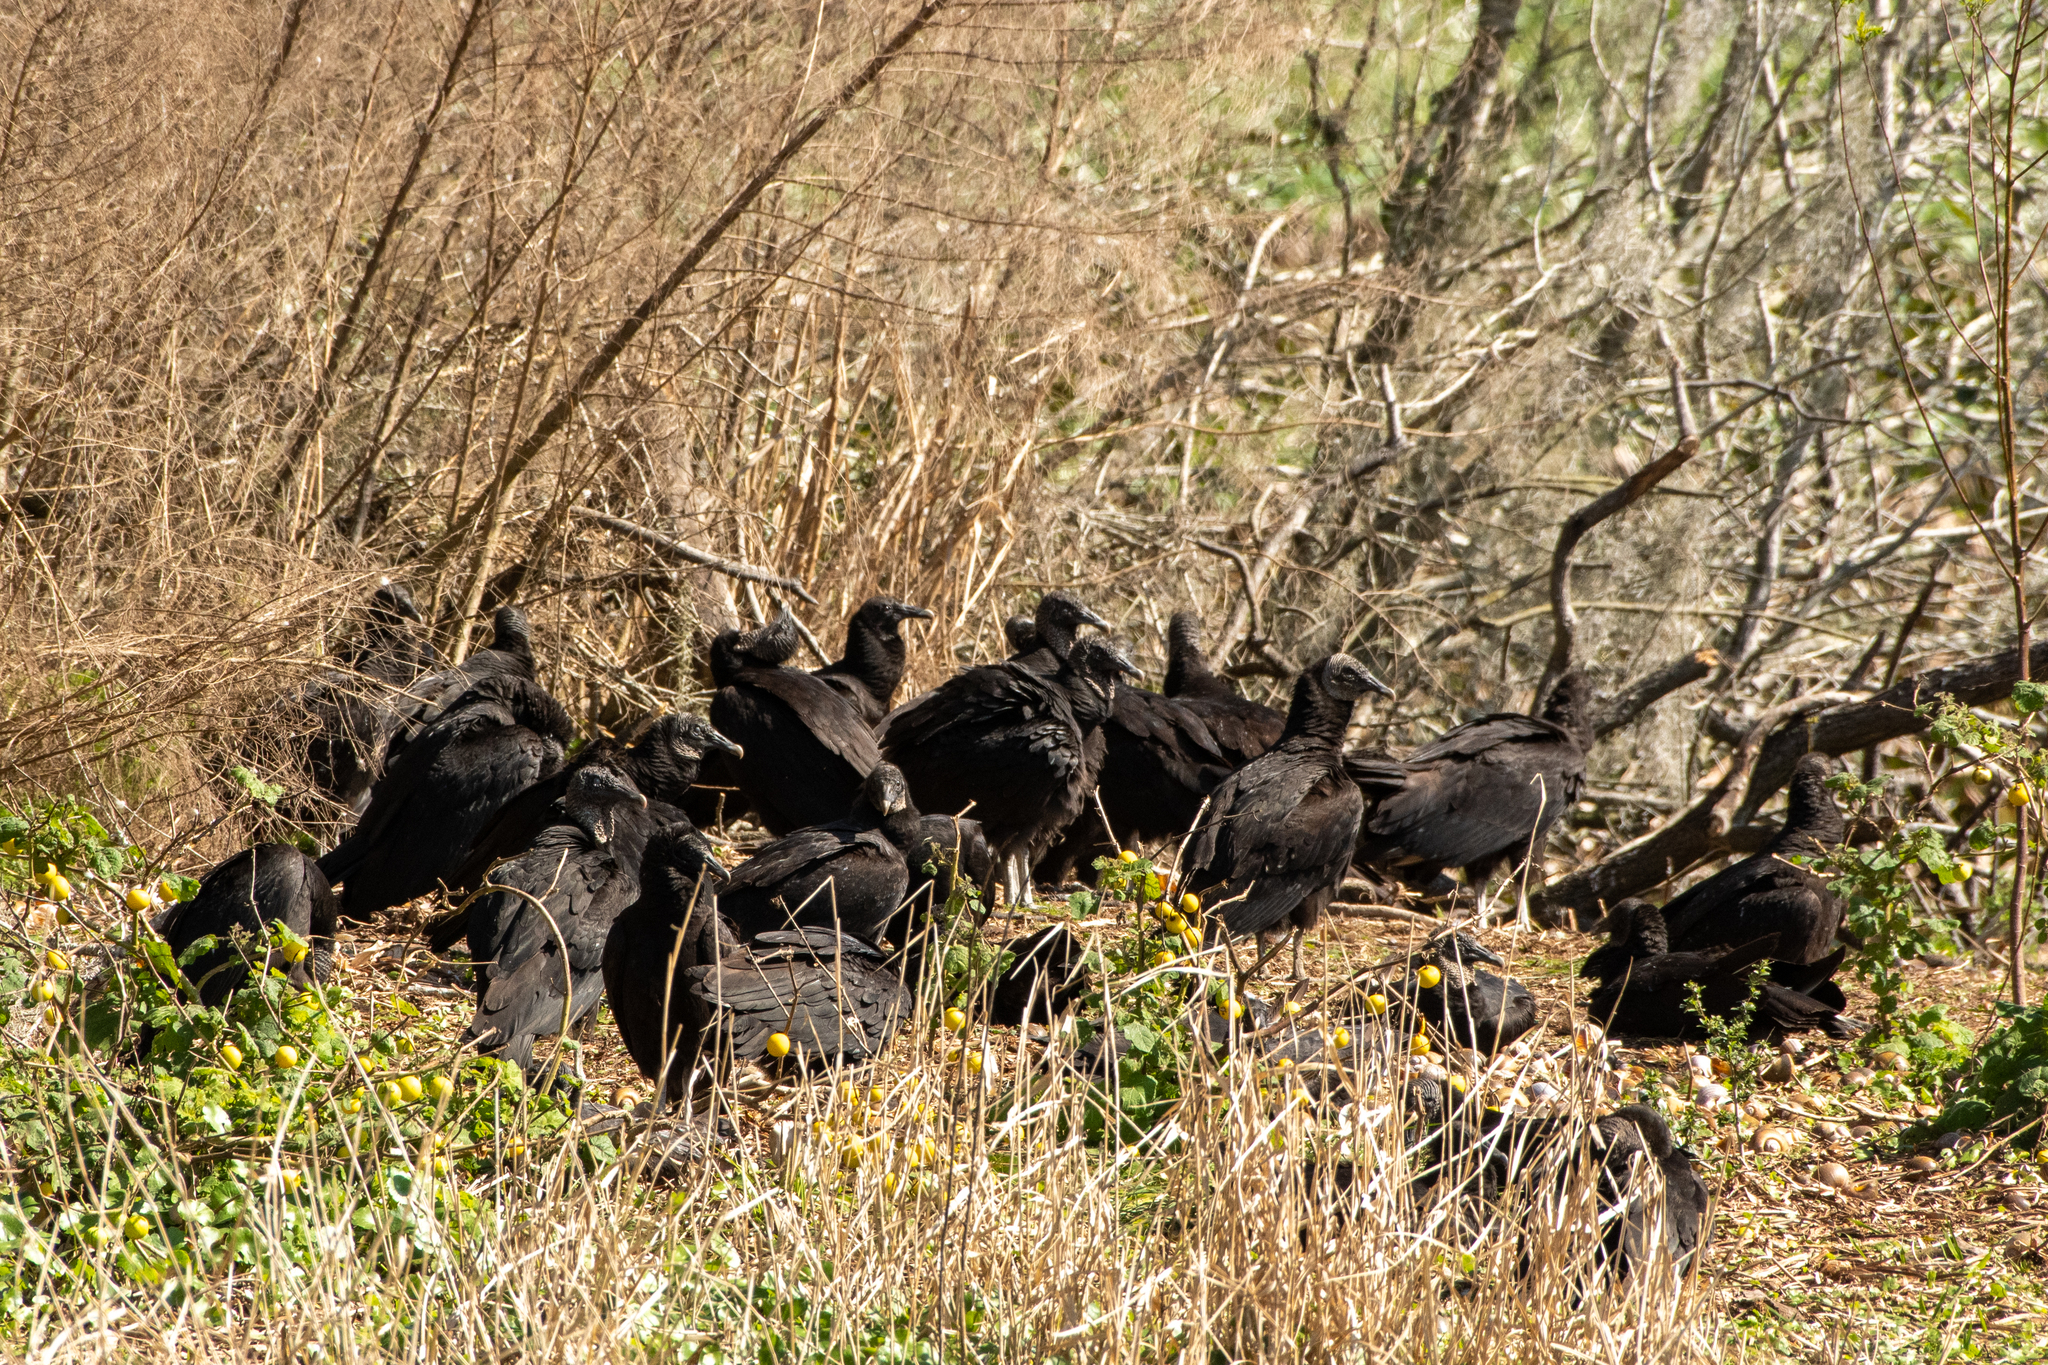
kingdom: Animalia
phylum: Chordata
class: Aves
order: Accipitriformes
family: Cathartidae
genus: Coragyps
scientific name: Coragyps atratus
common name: Black vulture
